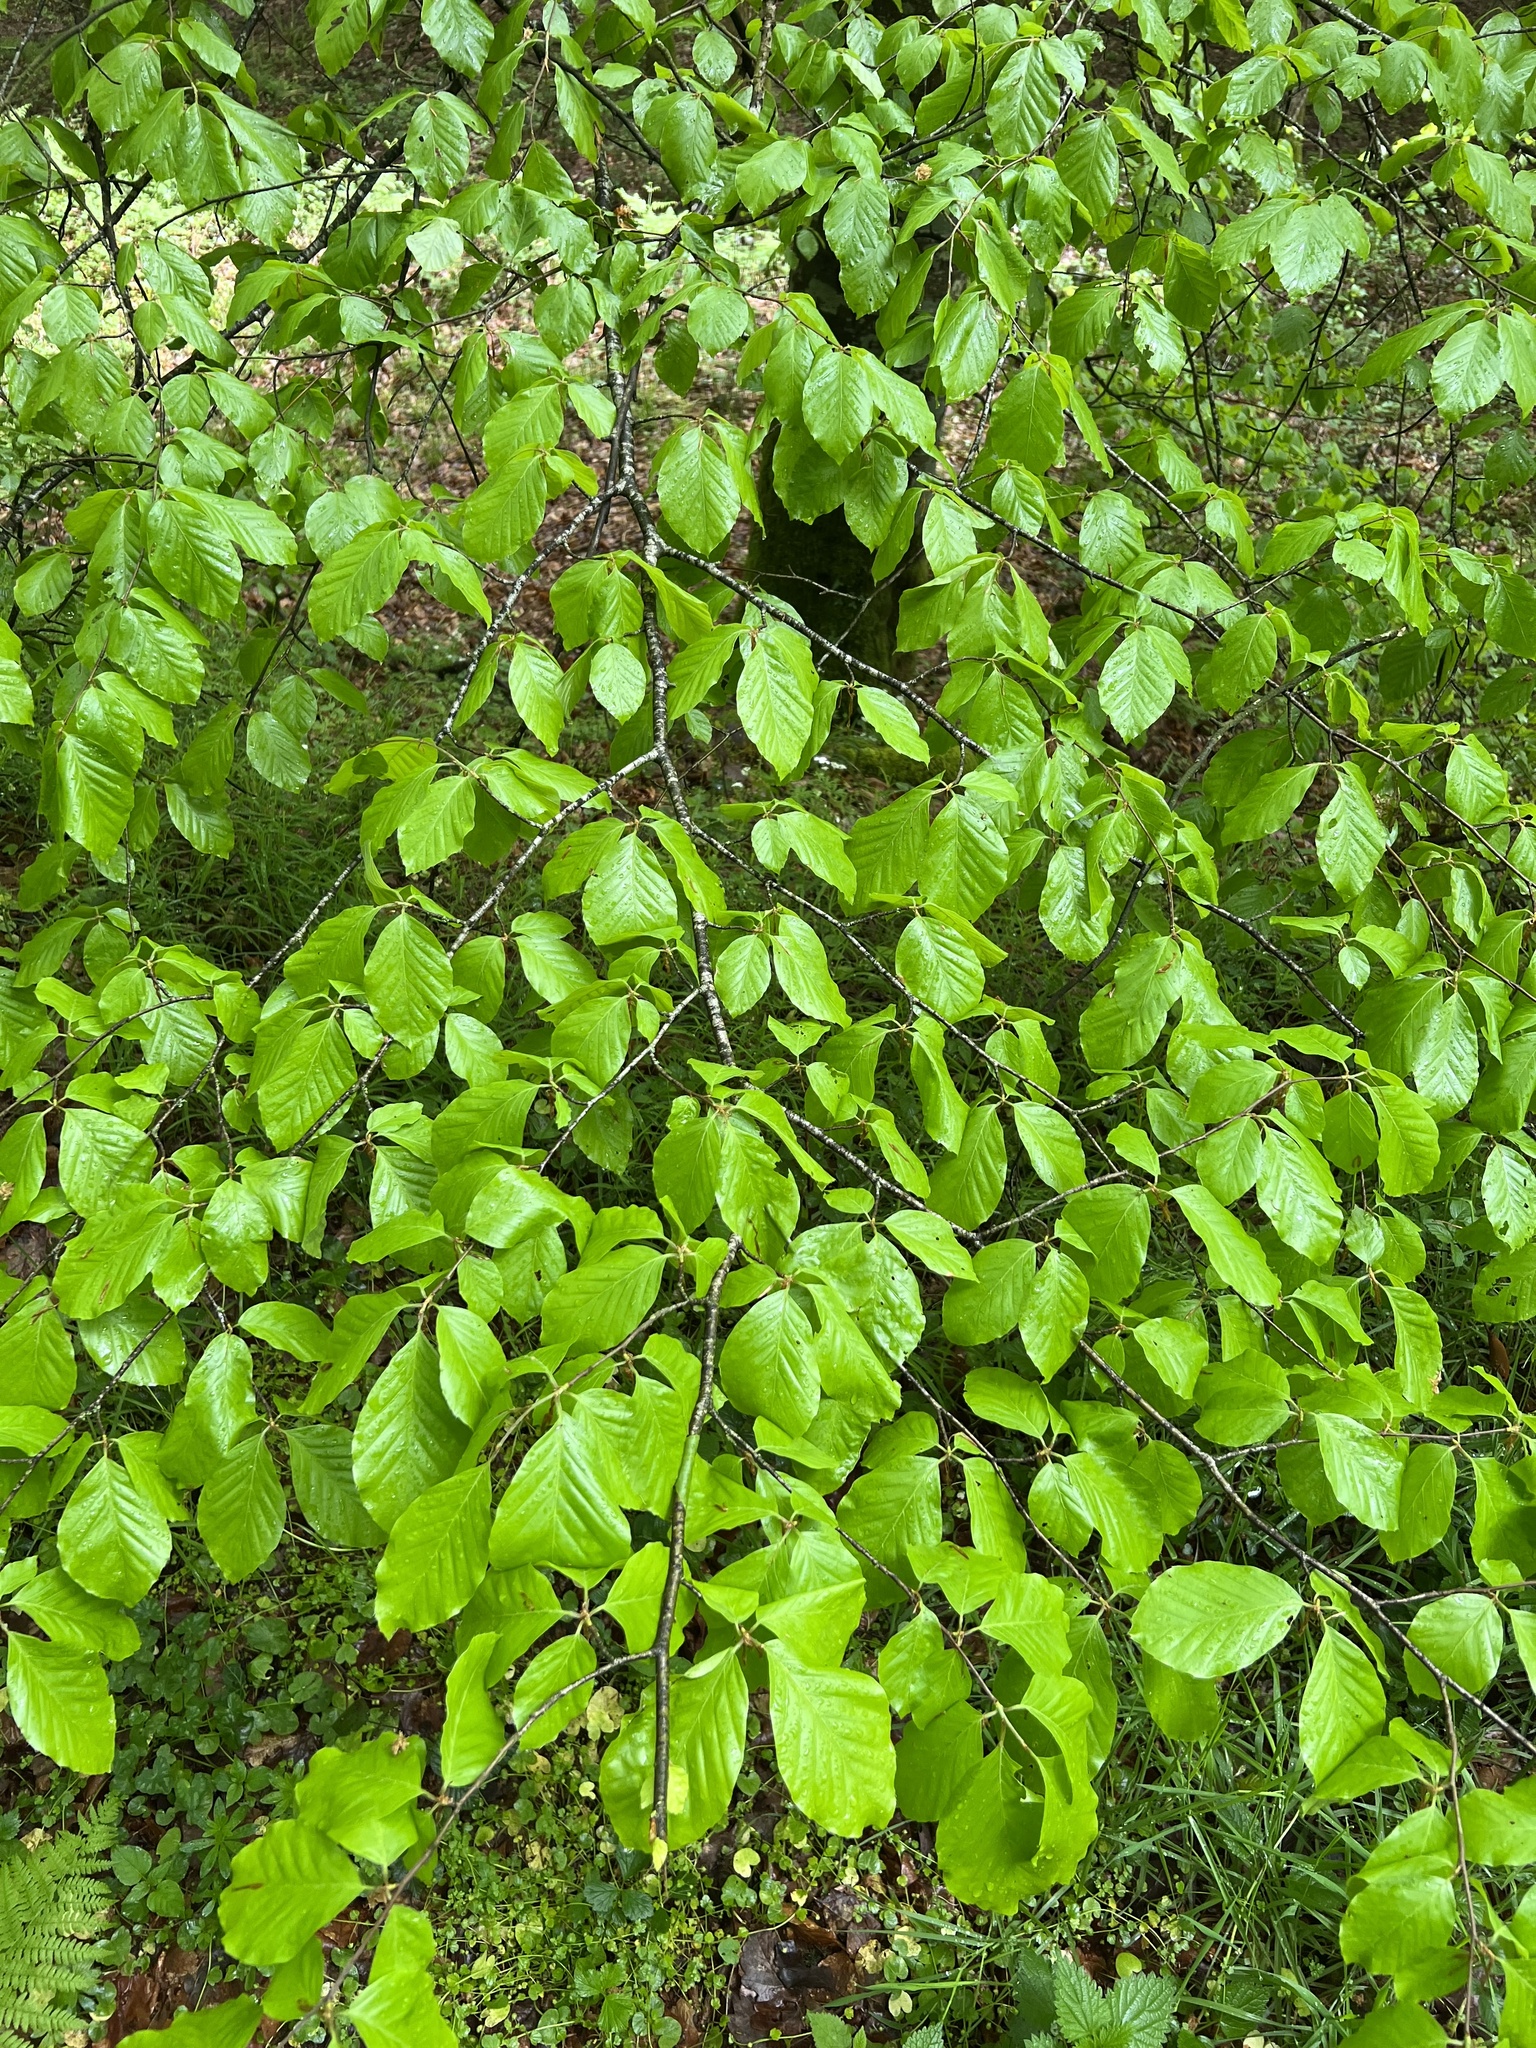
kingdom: Plantae
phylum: Tracheophyta
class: Magnoliopsida
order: Fagales
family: Fagaceae
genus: Fagus
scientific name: Fagus sylvatica
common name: Beech
